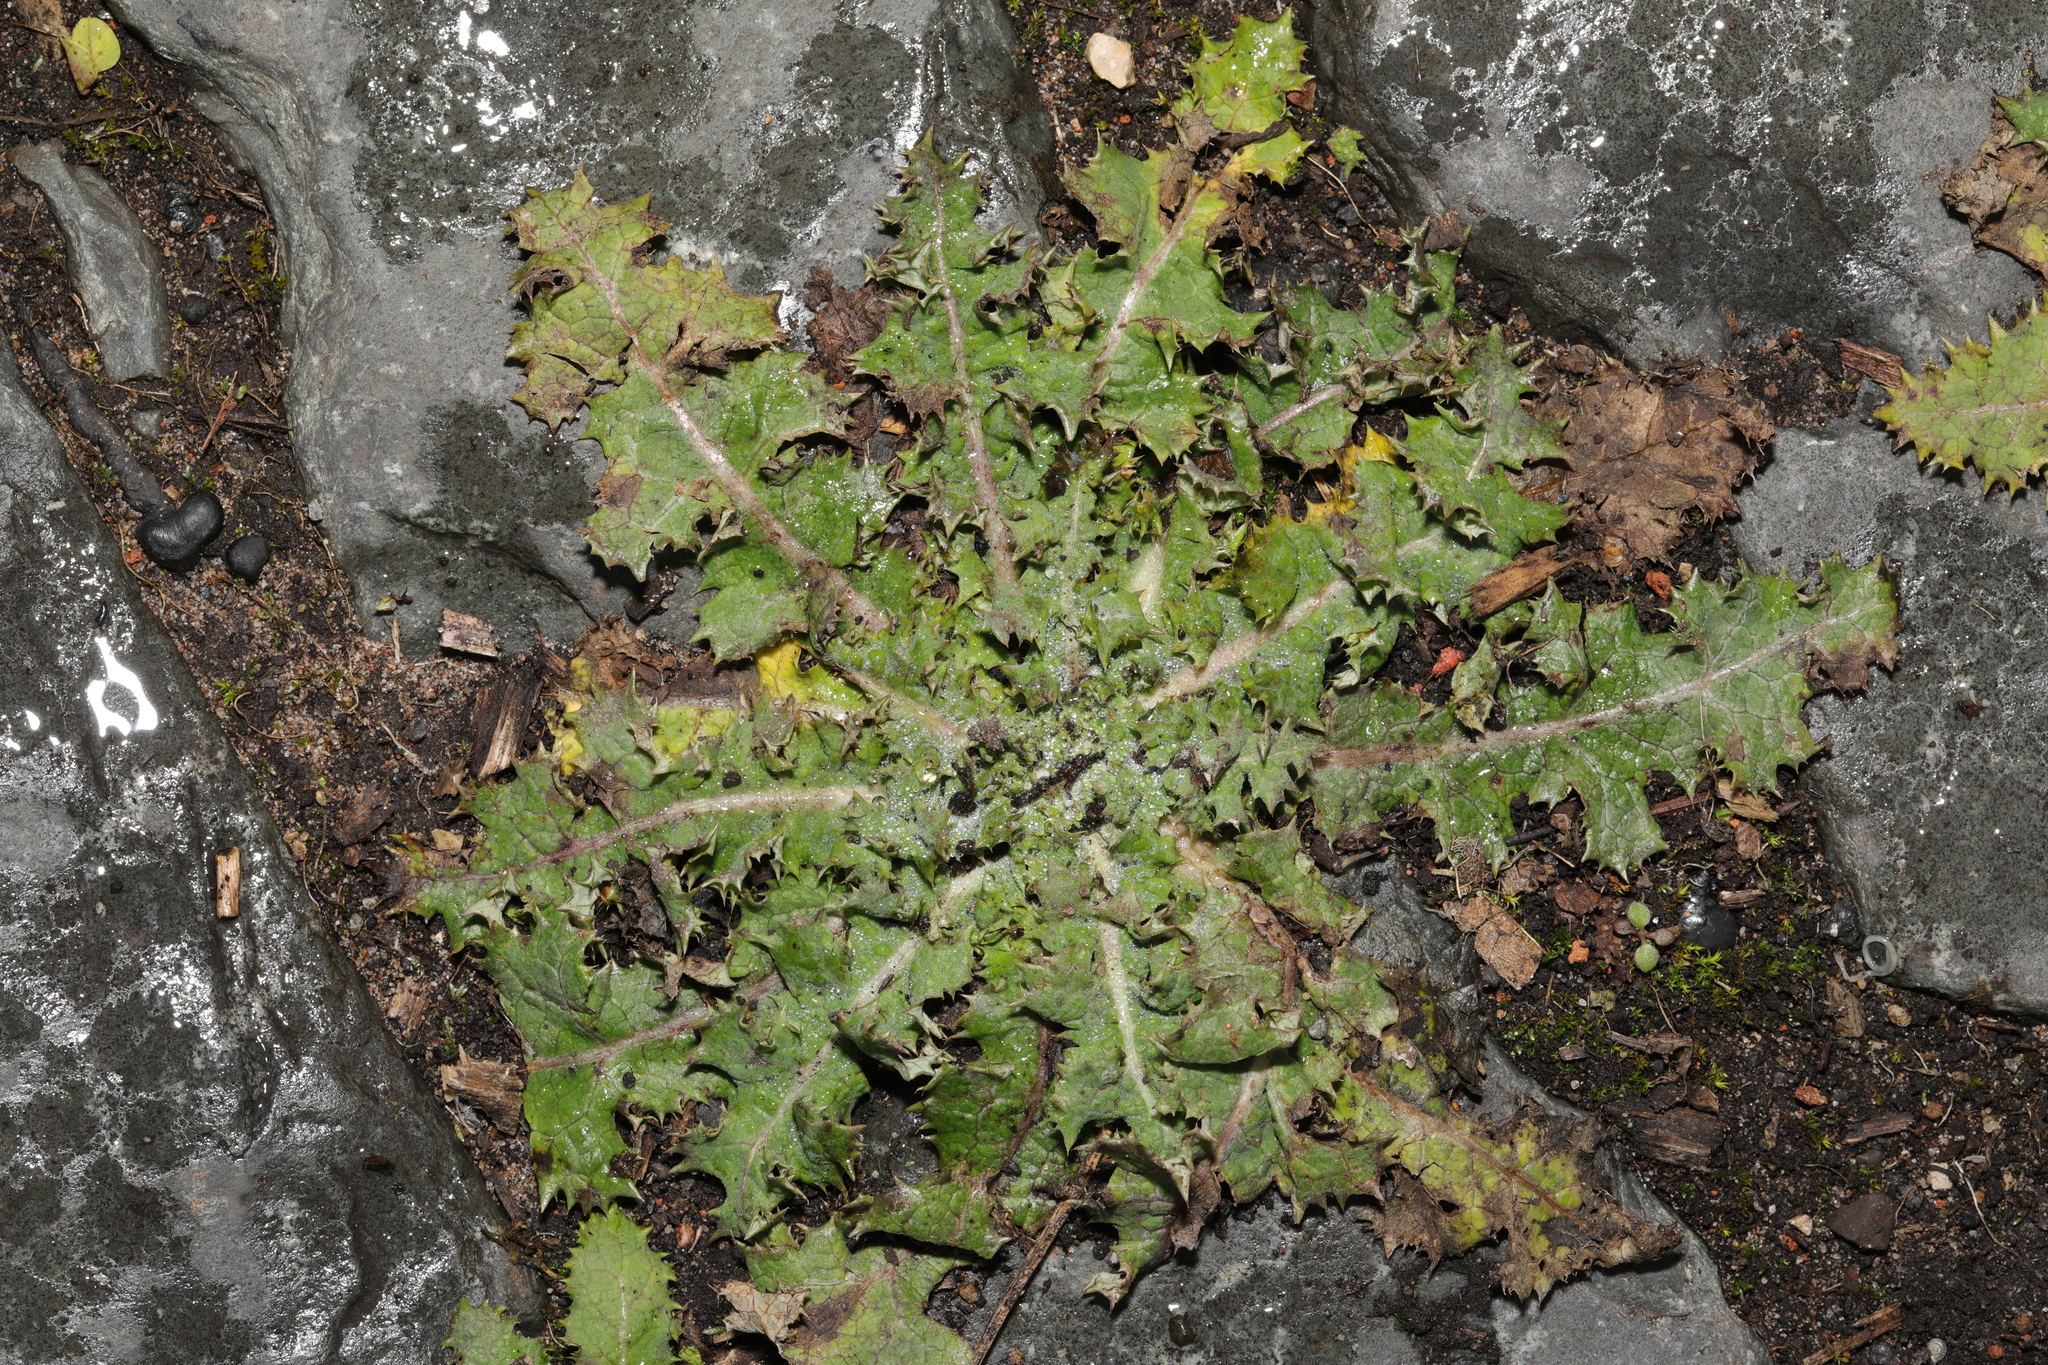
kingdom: Plantae
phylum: Tracheophyta
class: Magnoliopsida
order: Asterales
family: Asteraceae
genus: Sonchus
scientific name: Sonchus asper
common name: Prickly sow-thistle
